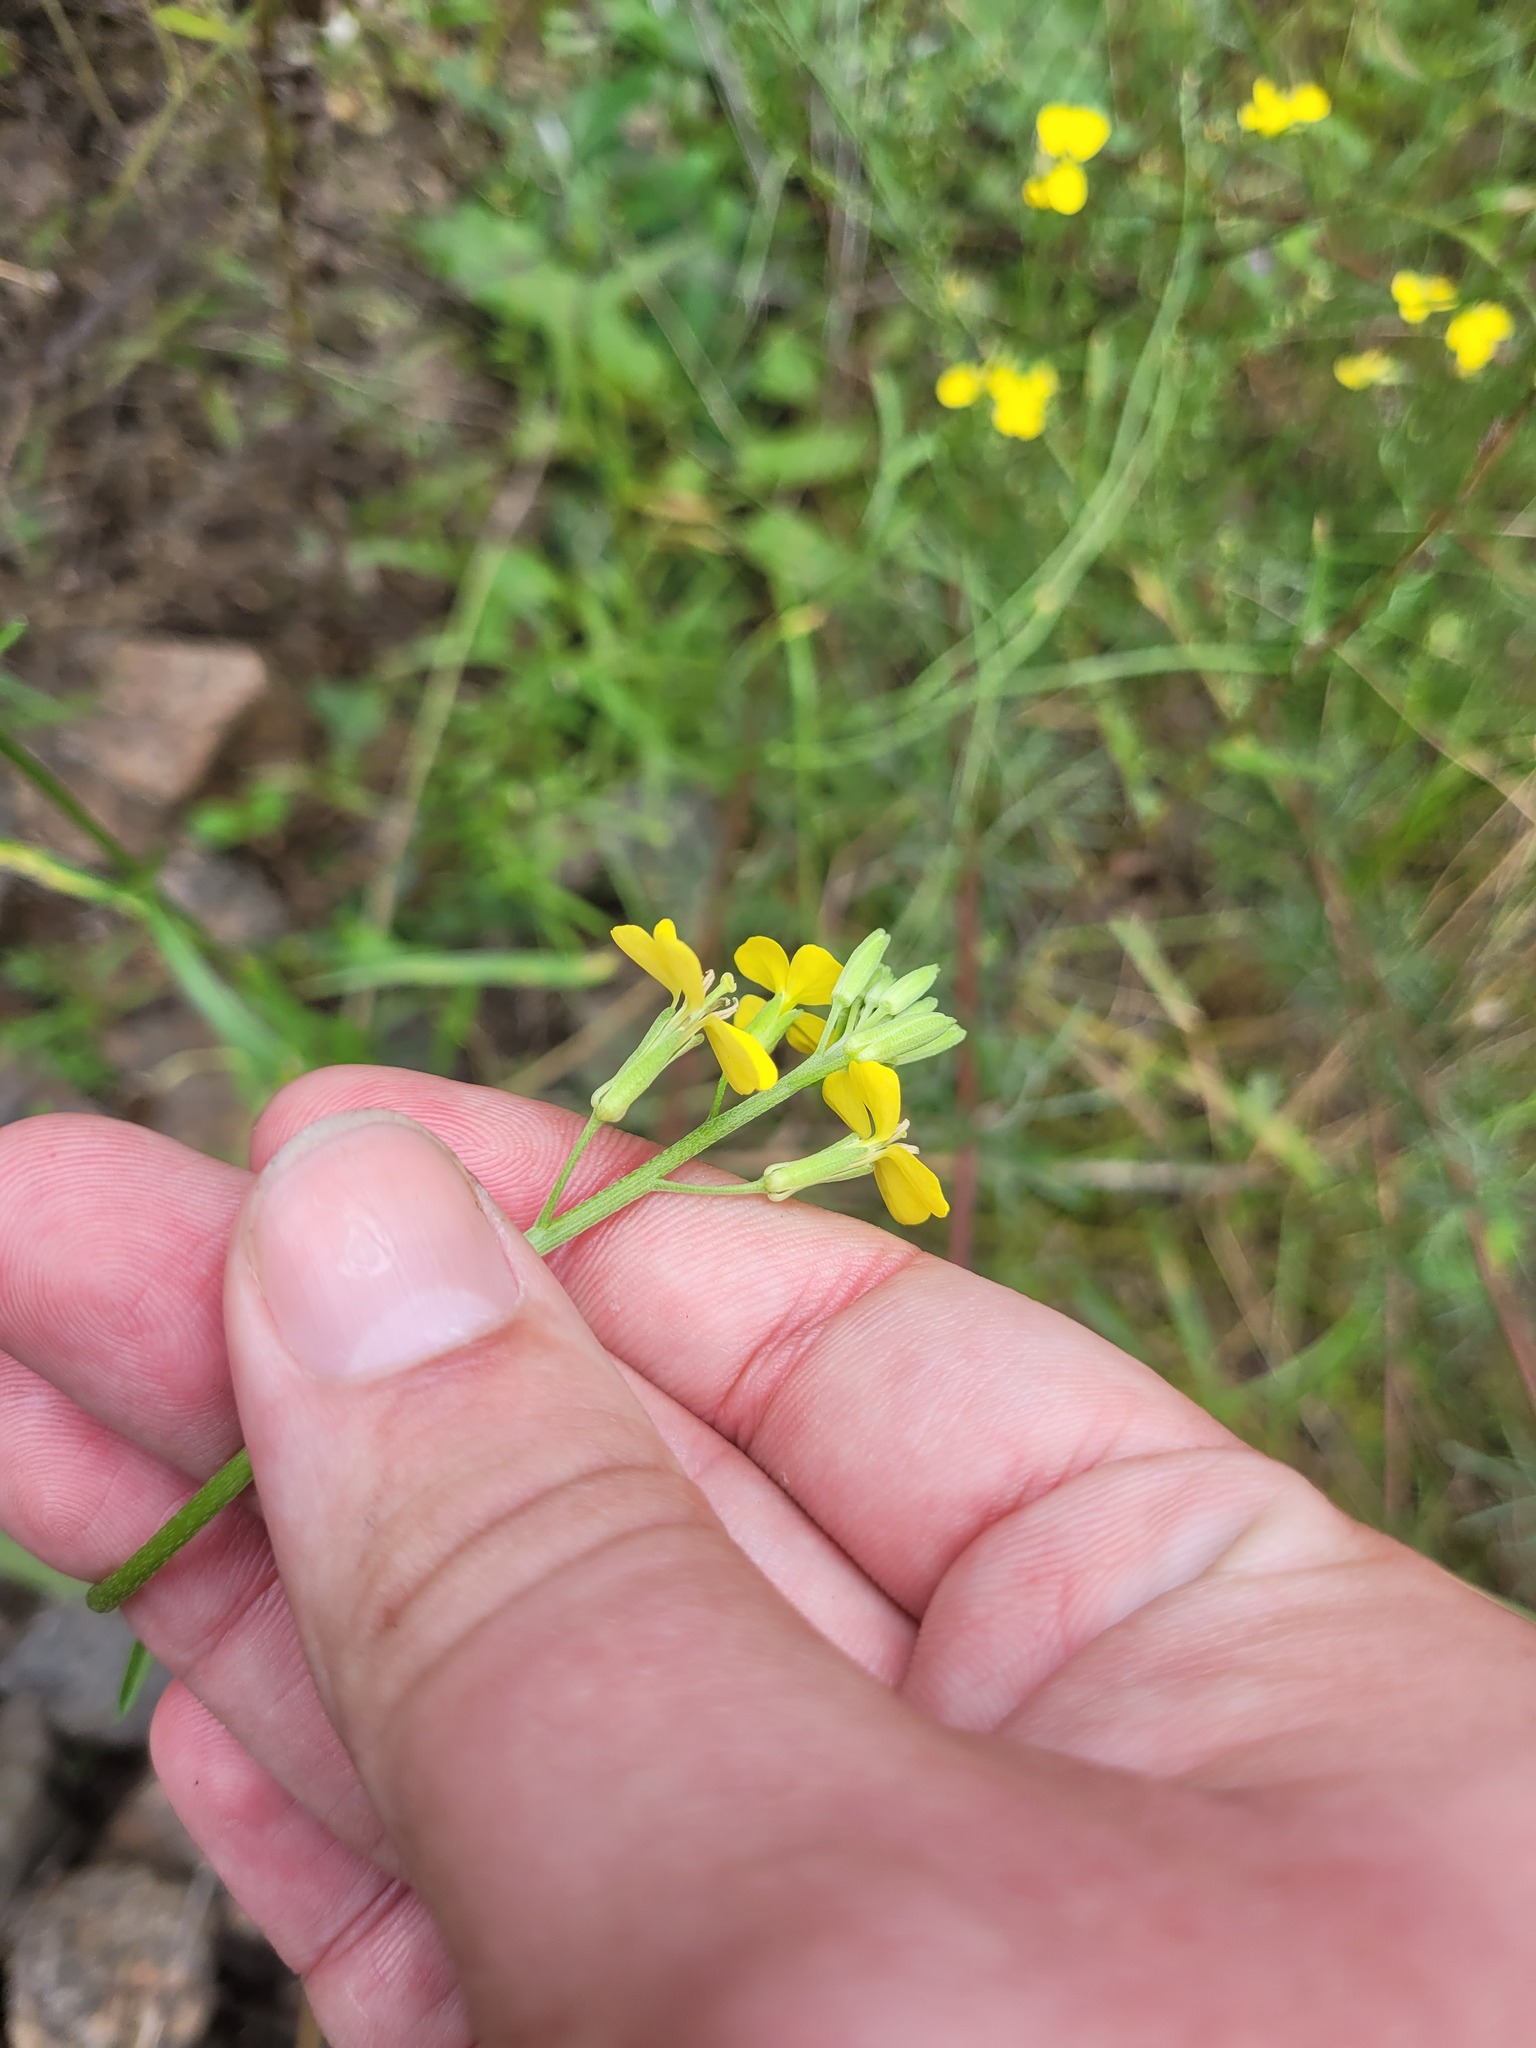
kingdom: Plantae
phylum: Tracheophyta
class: Magnoliopsida
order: Brassicales
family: Brassicaceae
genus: Erysimum
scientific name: Erysimum diffusum
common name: Diffuse wallflower
